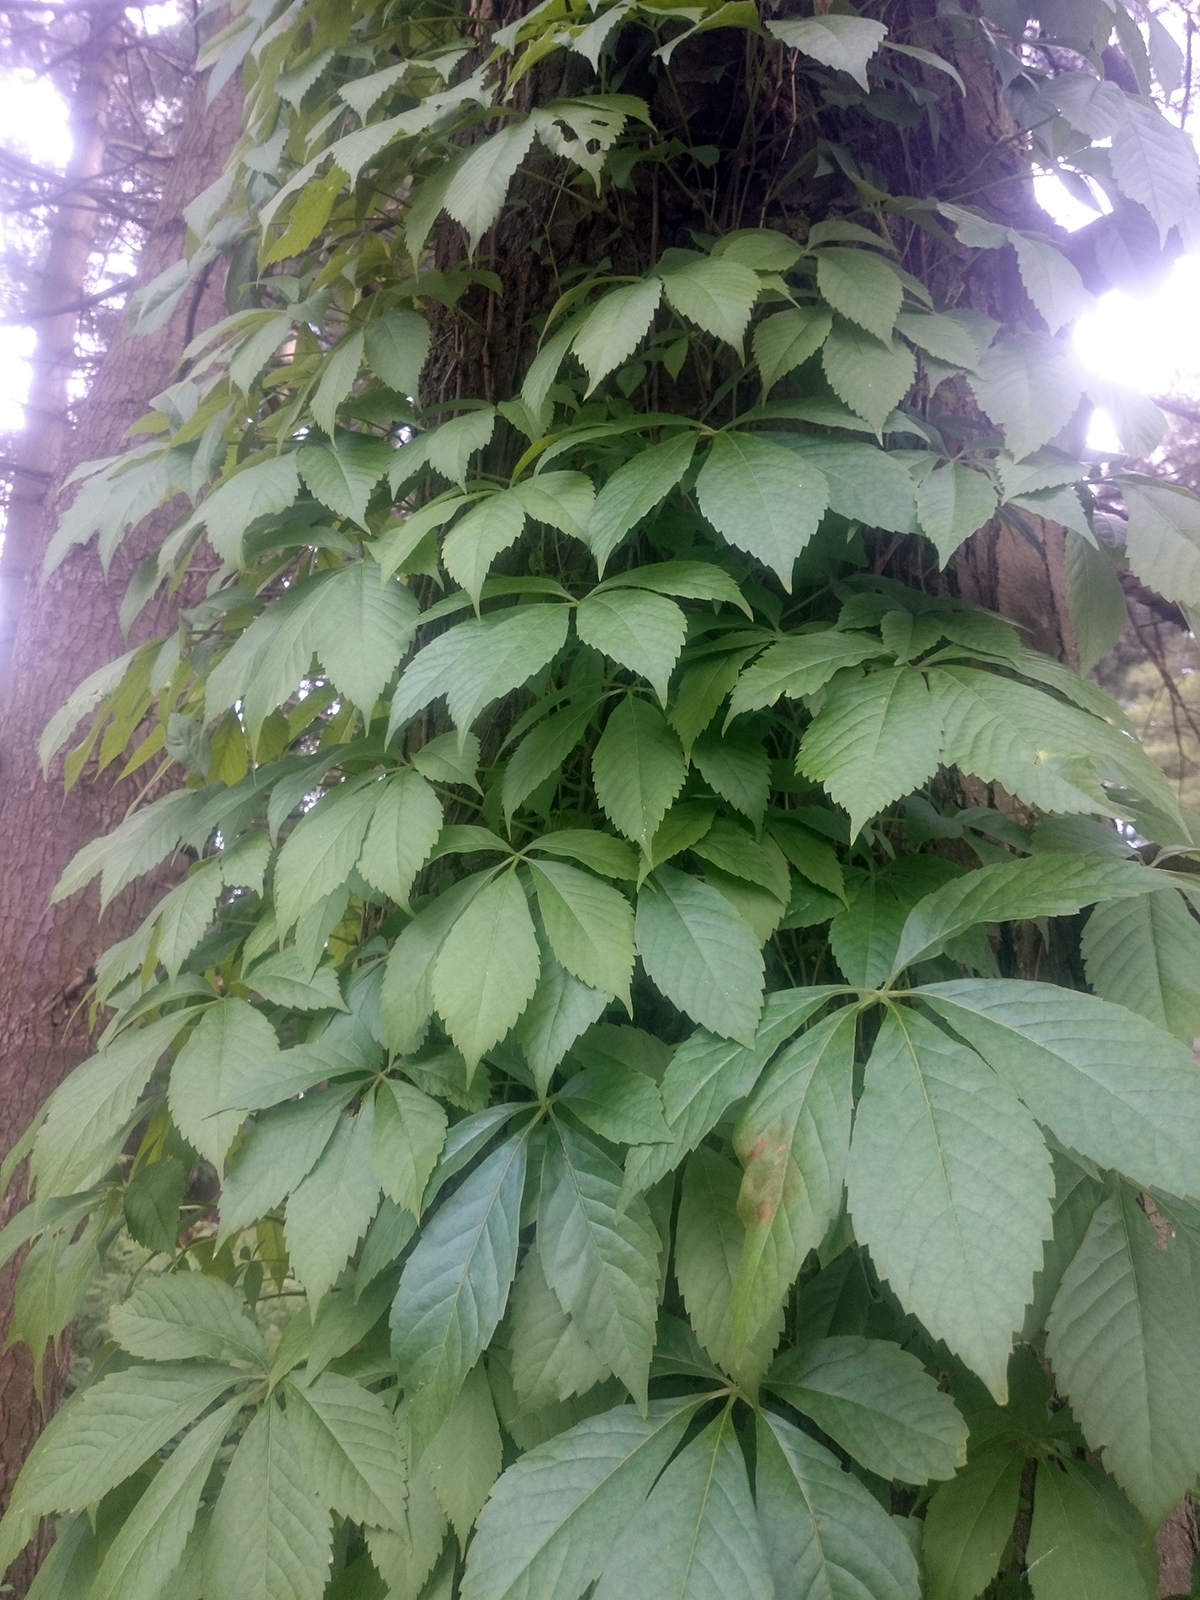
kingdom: Plantae
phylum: Tracheophyta
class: Magnoliopsida
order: Vitales
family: Vitaceae
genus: Parthenocissus
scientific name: Parthenocissus quinquefolia
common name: Virginia-creeper
